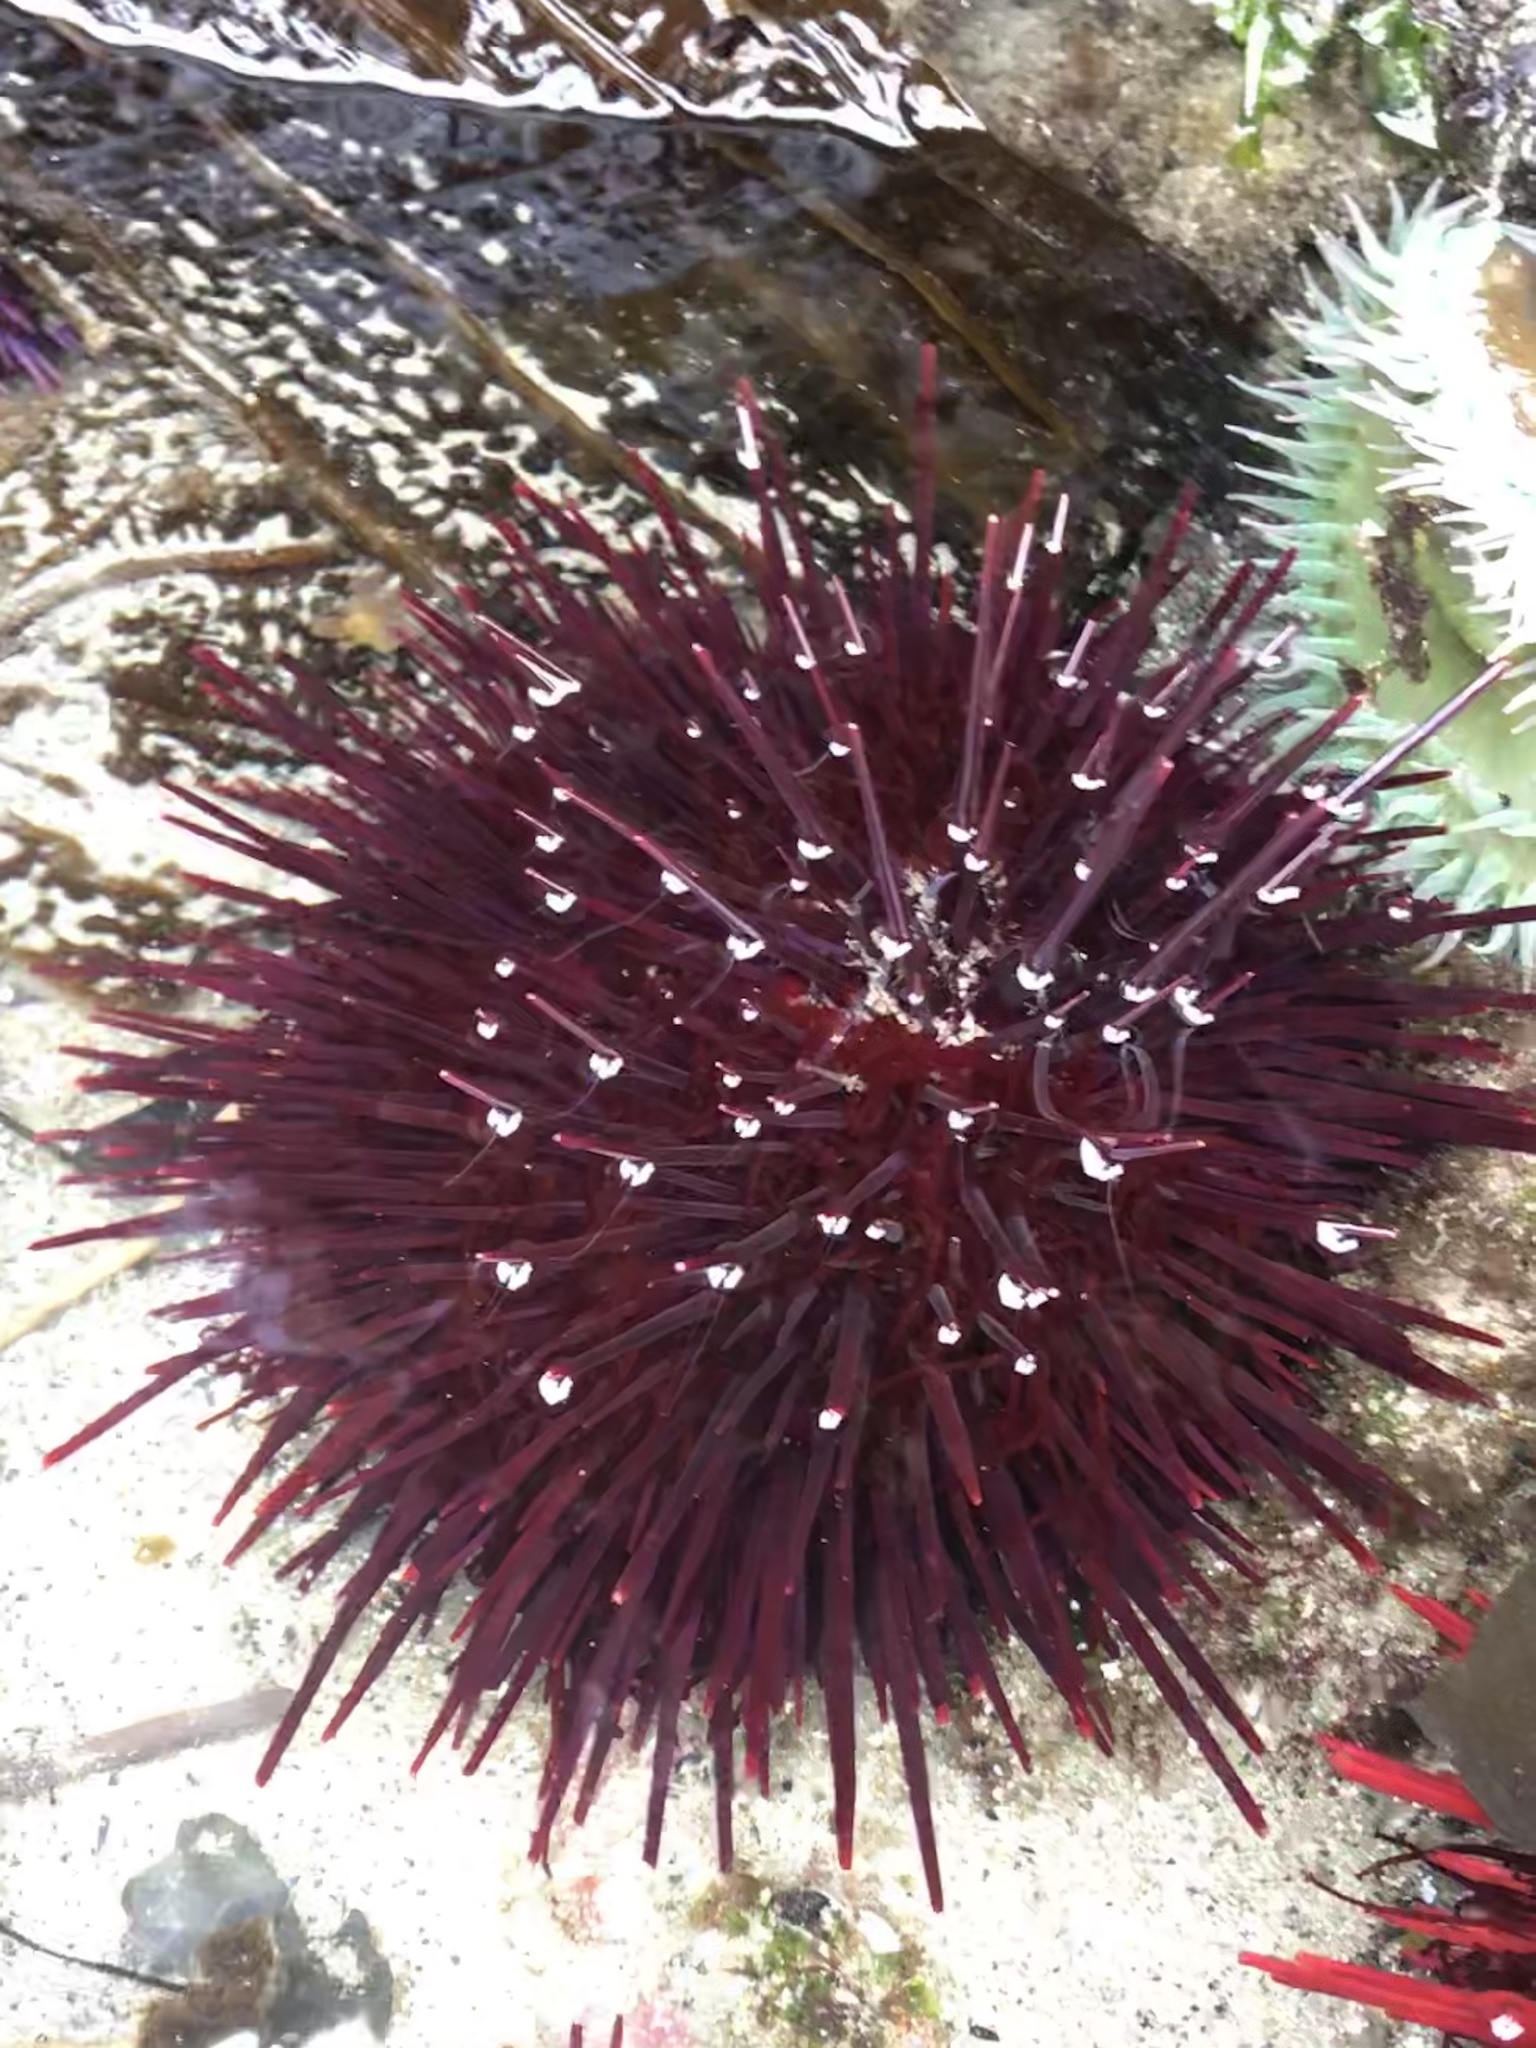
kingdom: Animalia
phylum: Echinodermata
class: Echinoidea
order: Camarodonta
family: Strongylocentrotidae
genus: Mesocentrotus
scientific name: Mesocentrotus franciscanus
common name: Red sea urchin
